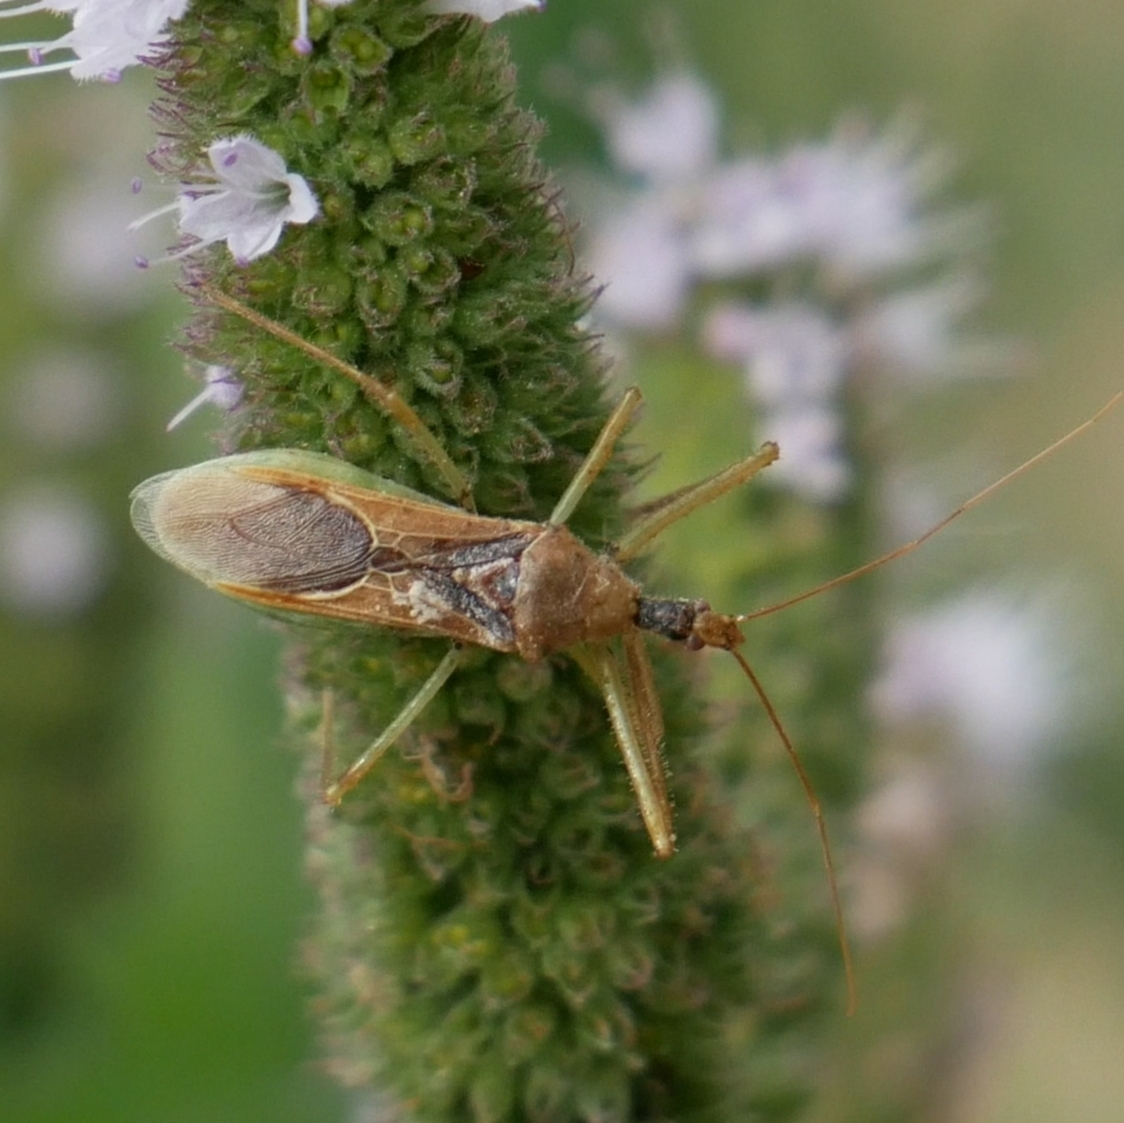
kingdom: Animalia
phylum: Arthropoda
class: Insecta
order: Hemiptera
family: Reduviidae
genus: Zelus
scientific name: Zelus renardii
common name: Assassin bug
